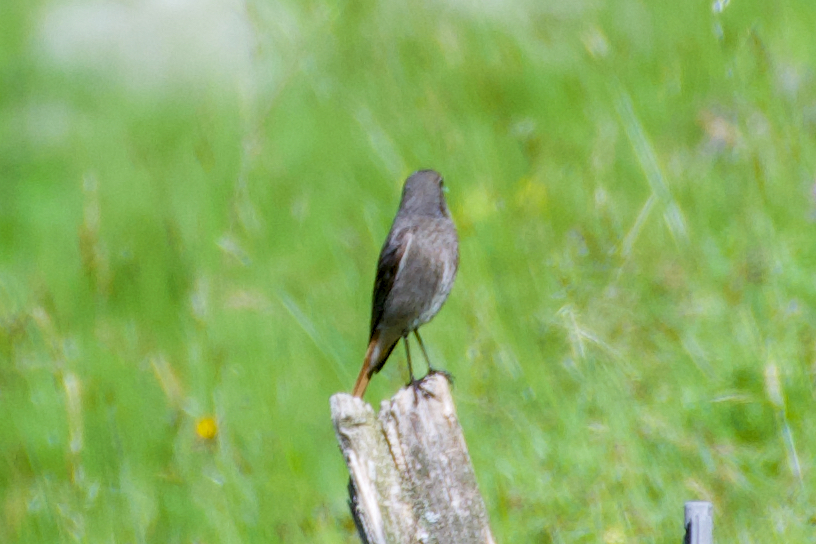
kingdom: Animalia
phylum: Chordata
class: Aves
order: Passeriformes
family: Muscicapidae
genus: Phoenicurus
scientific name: Phoenicurus ochruros
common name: Black redstart
